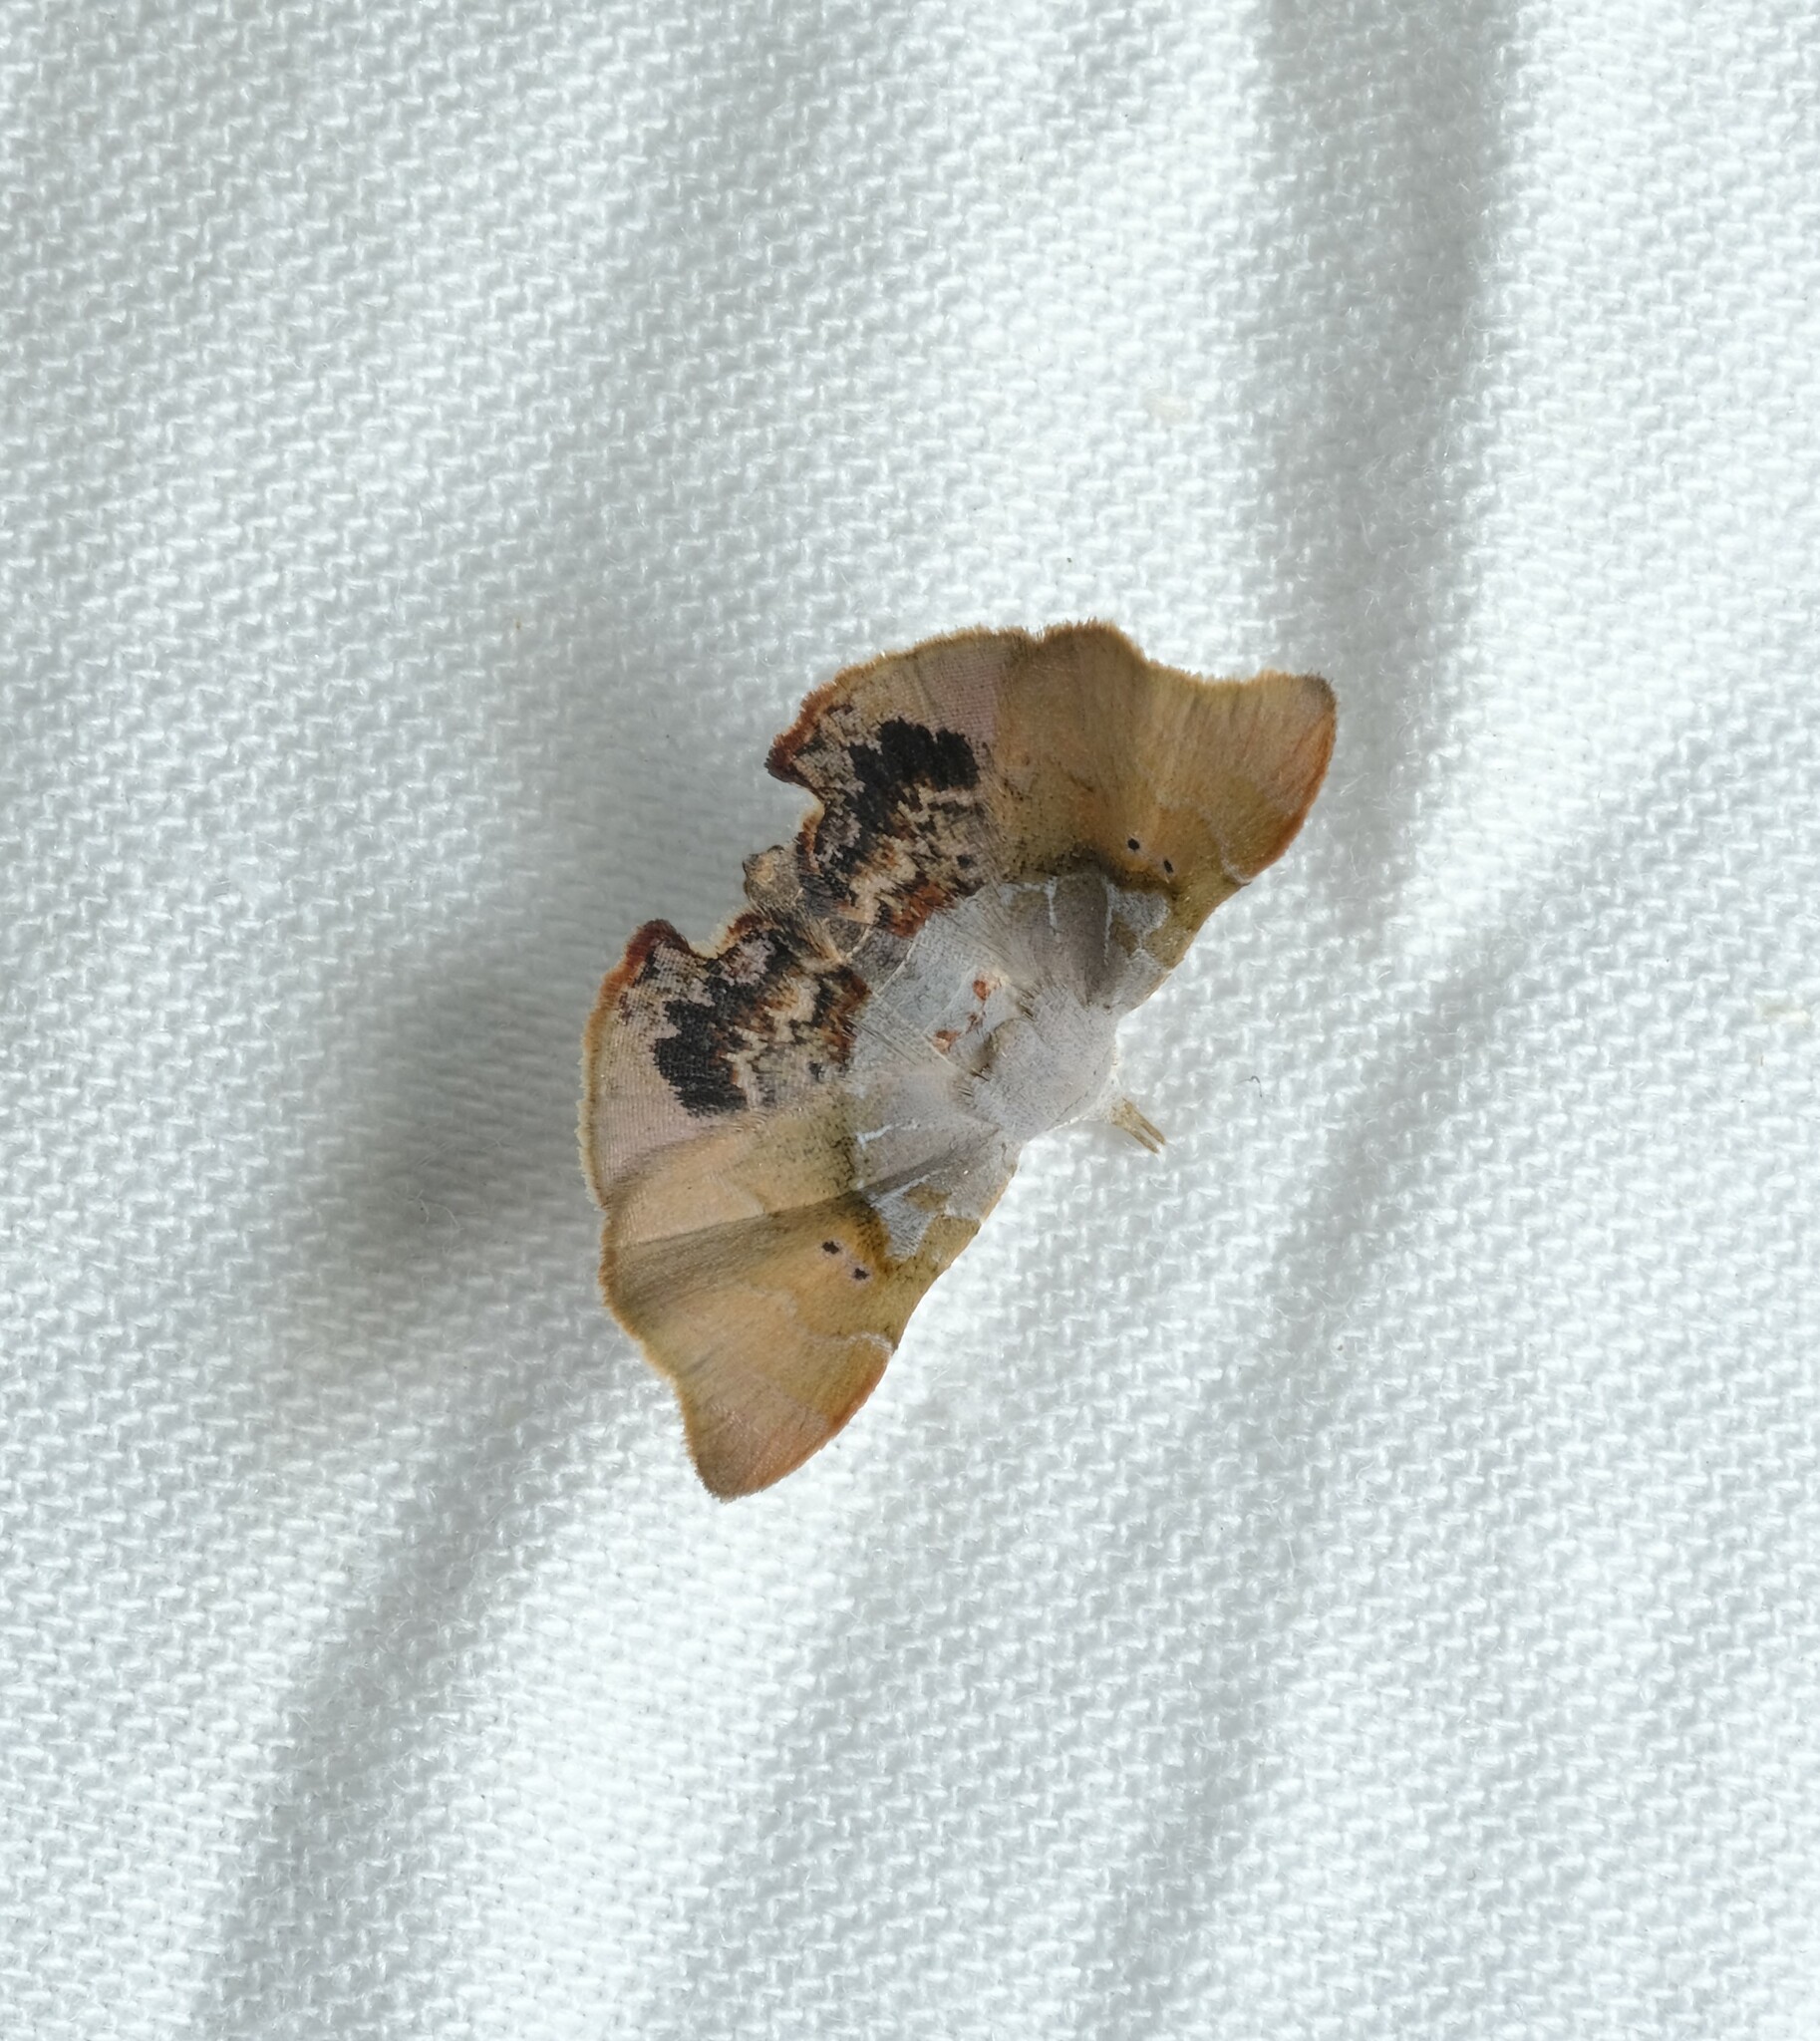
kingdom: Animalia
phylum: Arthropoda
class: Insecta
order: Lepidoptera
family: Erebidae
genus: Esthlodora
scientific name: Esthlodora versicolor
